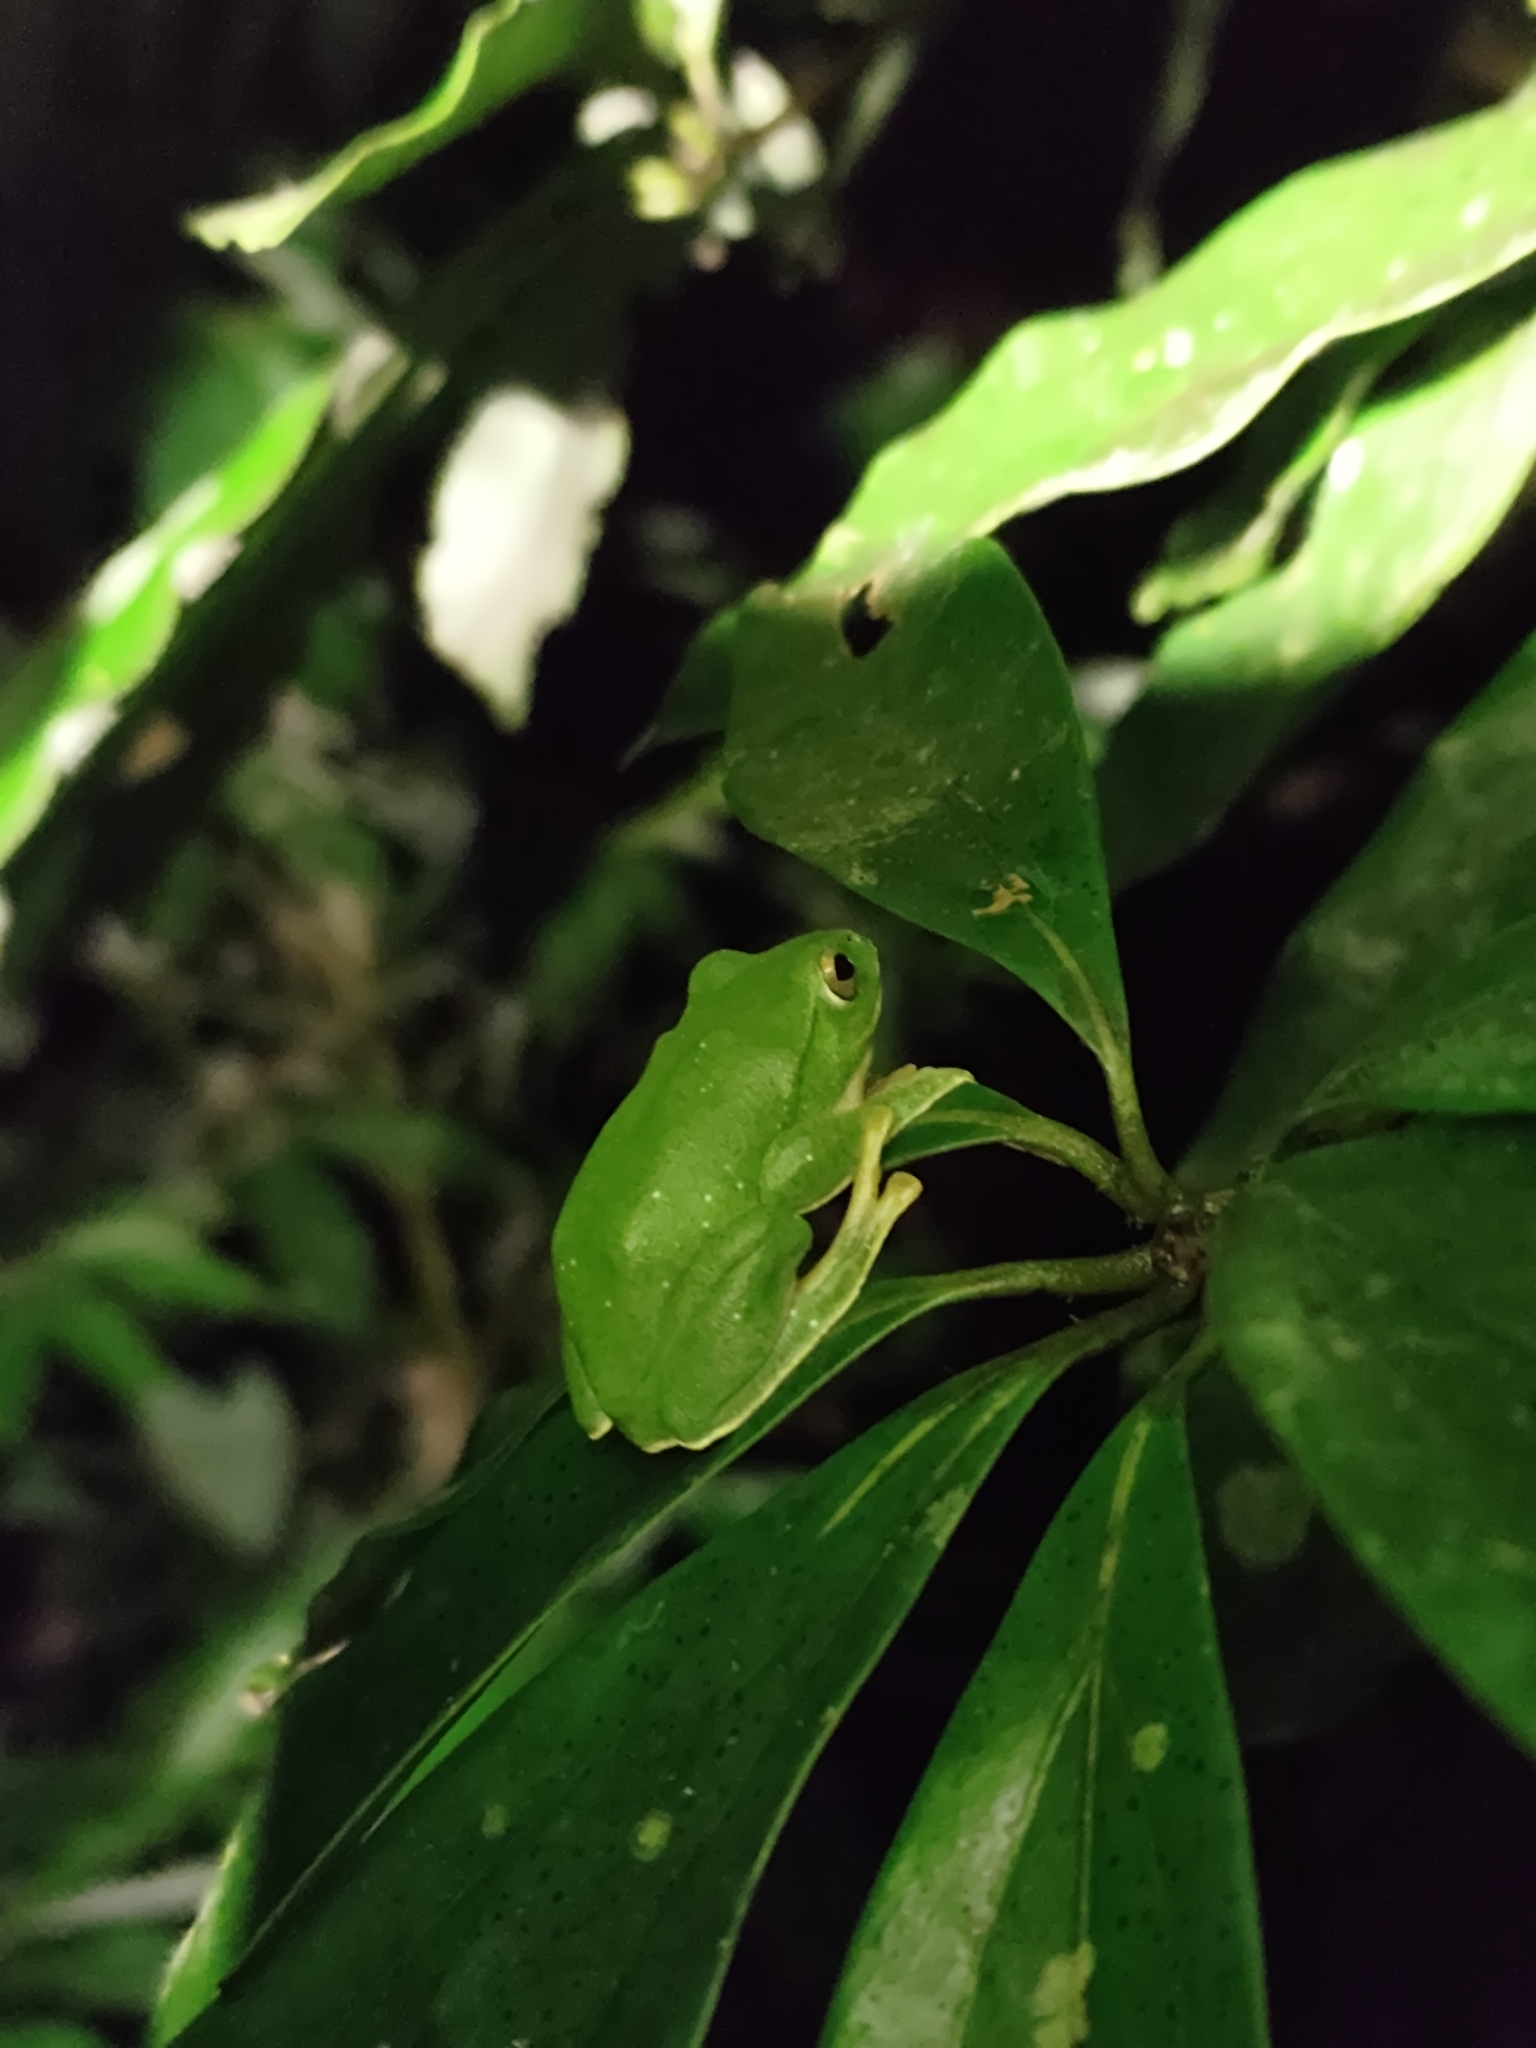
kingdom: Animalia
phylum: Chordata
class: Amphibia
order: Anura
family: Rhacophoridae
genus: Zhangixalus
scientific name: Zhangixalus taipeianus
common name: Taipei flying frog
